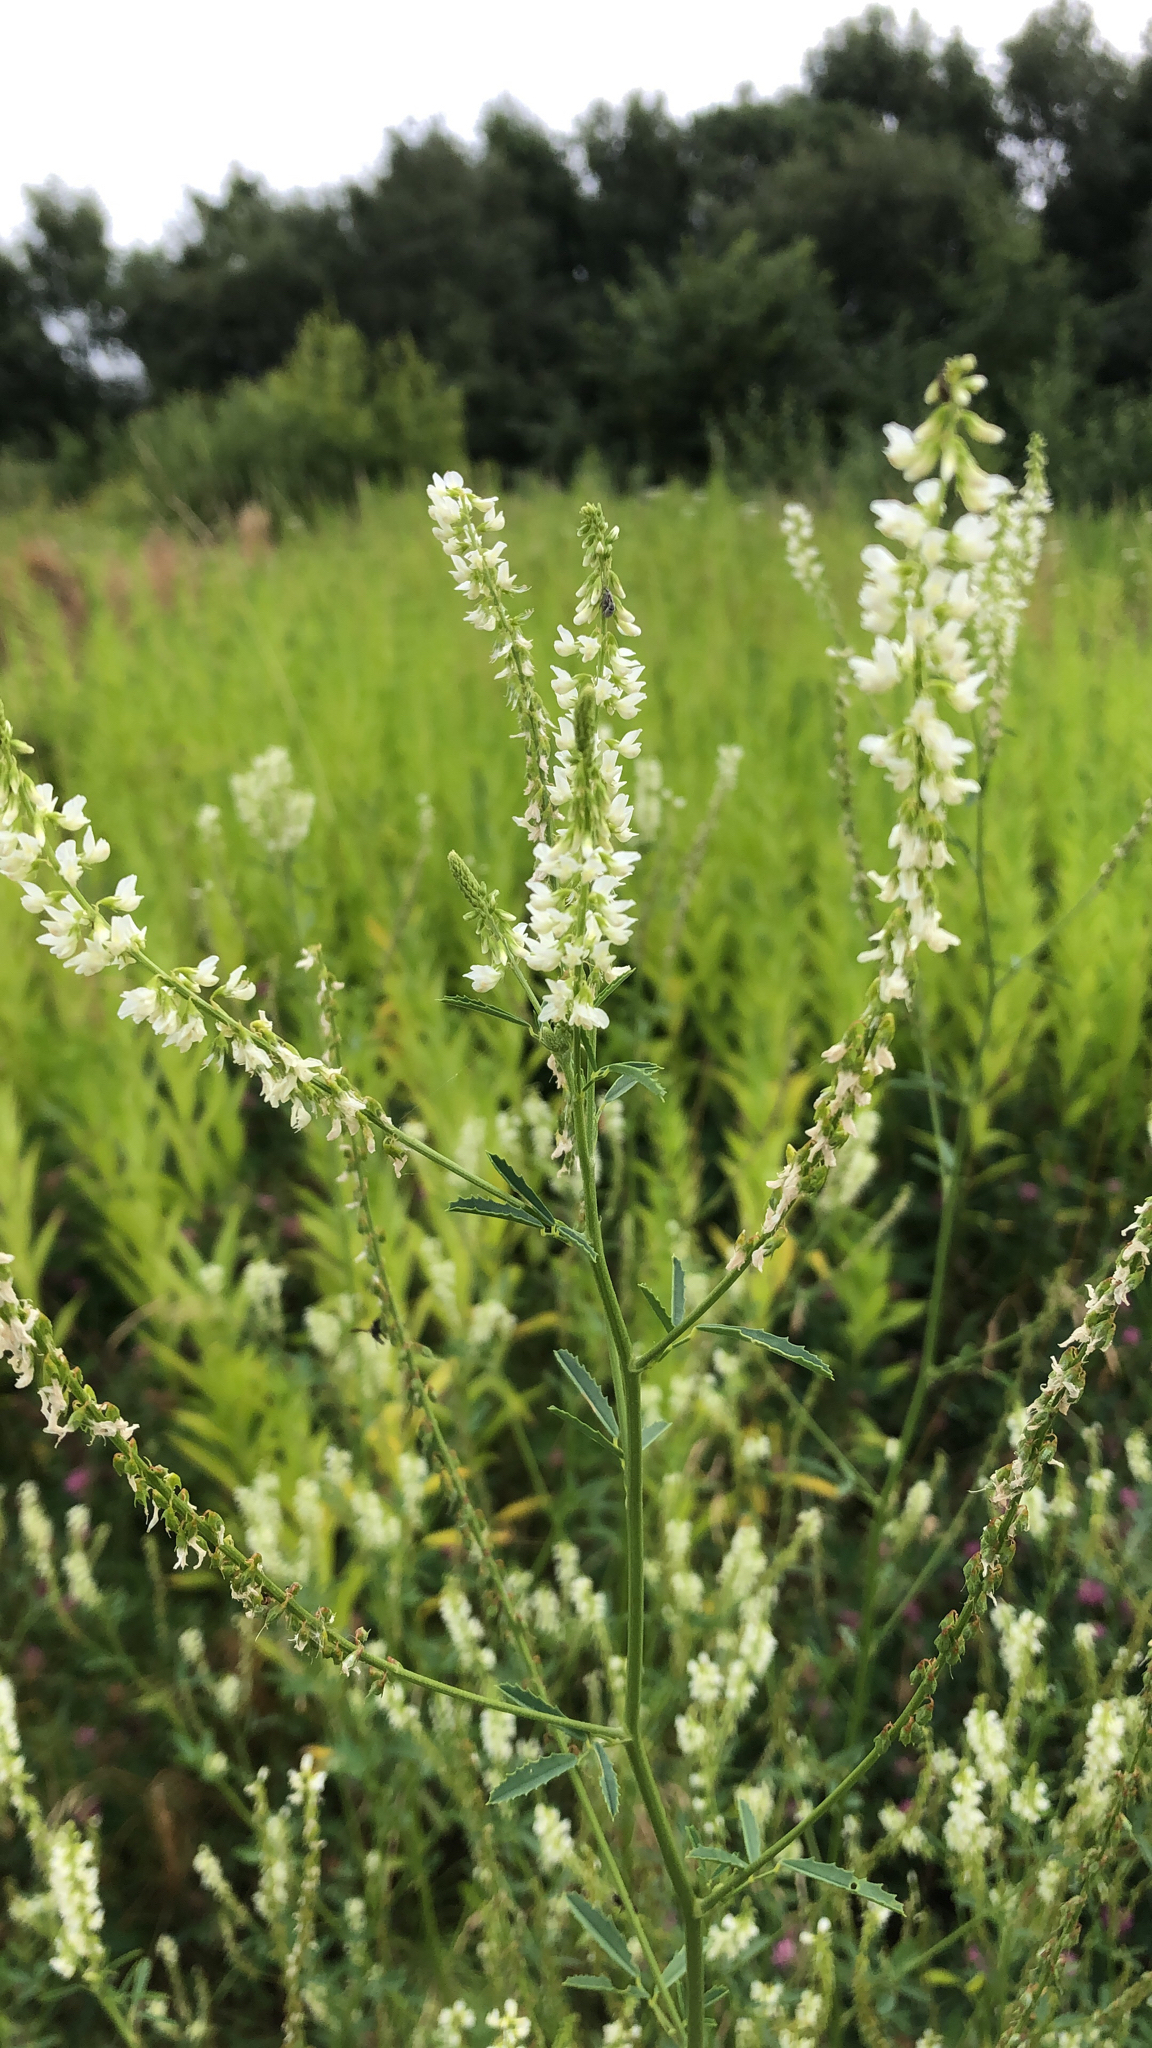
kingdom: Plantae
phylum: Tracheophyta
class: Magnoliopsida
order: Fabales
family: Fabaceae
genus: Melilotus
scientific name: Melilotus albus
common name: White melilot
